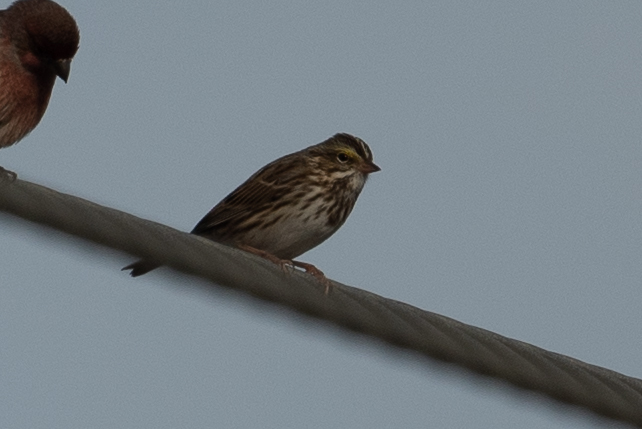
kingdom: Animalia
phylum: Chordata
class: Aves
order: Passeriformes
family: Passerellidae
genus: Passerculus
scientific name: Passerculus sandwichensis
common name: Savannah sparrow
